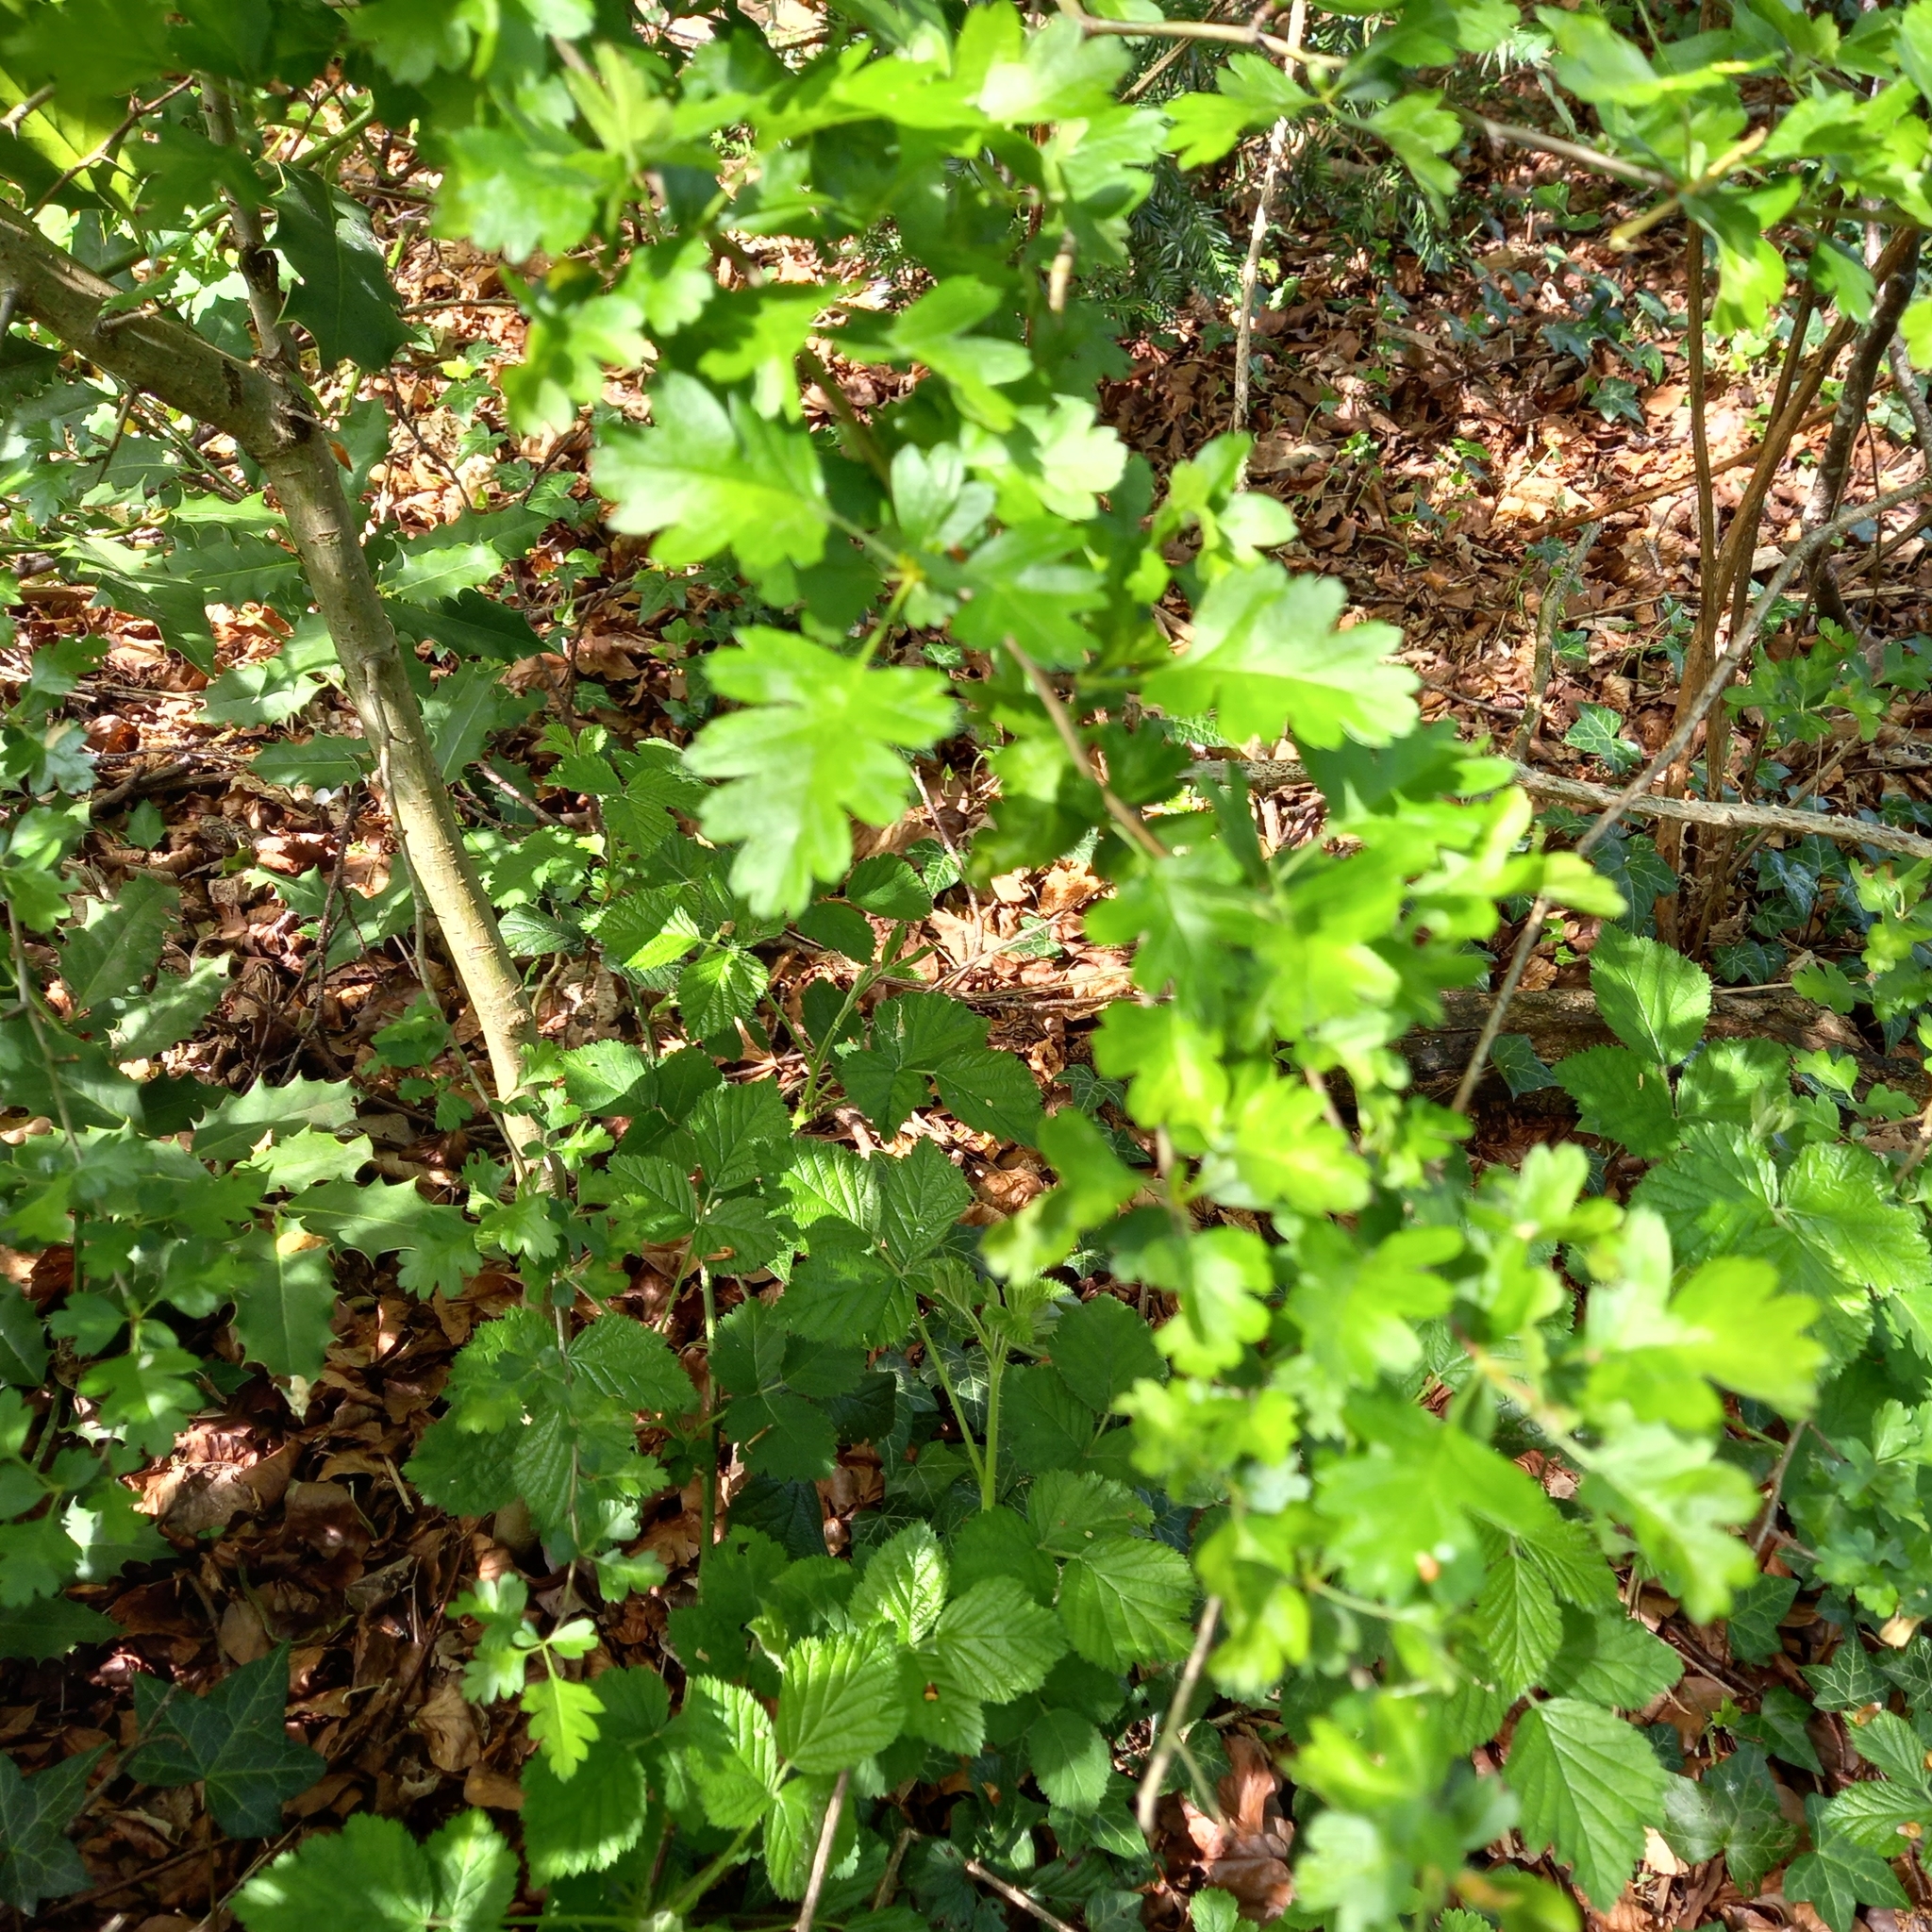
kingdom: Plantae
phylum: Tracheophyta
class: Magnoliopsida
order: Rosales
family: Rosaceae
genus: Crataegus
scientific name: Crataegus monogyna
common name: Hawthorn
